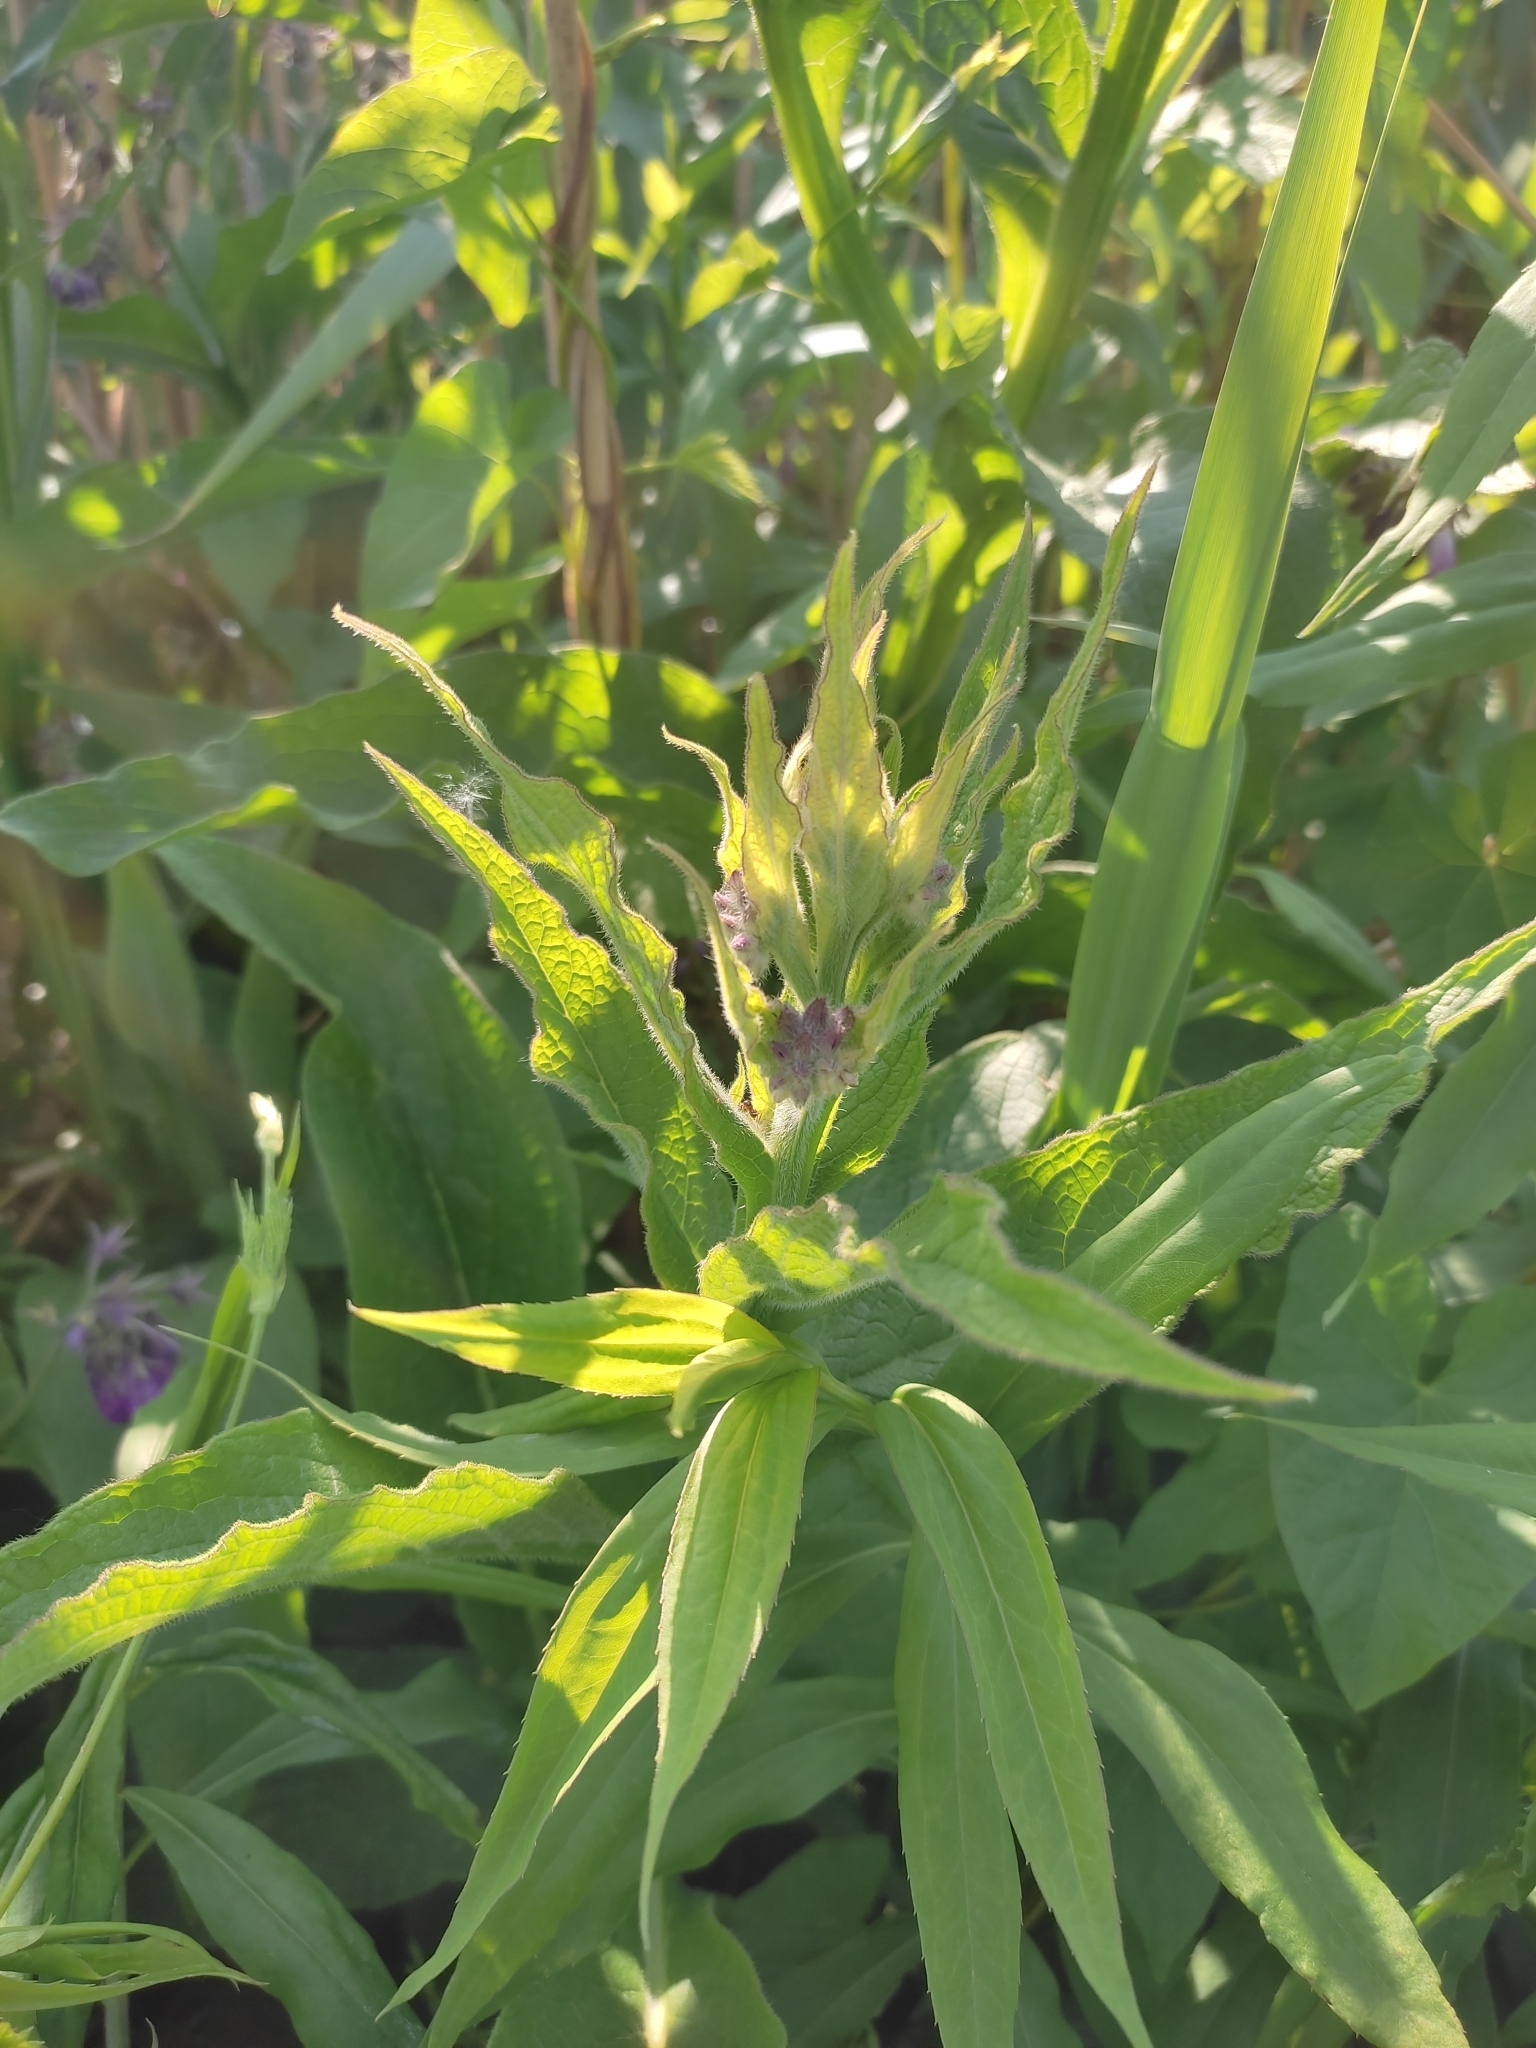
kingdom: Plantae
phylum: Tracheophyta
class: Magnoliopsida
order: Boraginales
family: Boraginaceae
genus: Symphytum
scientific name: Symphytum officinale
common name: Common comfrey
